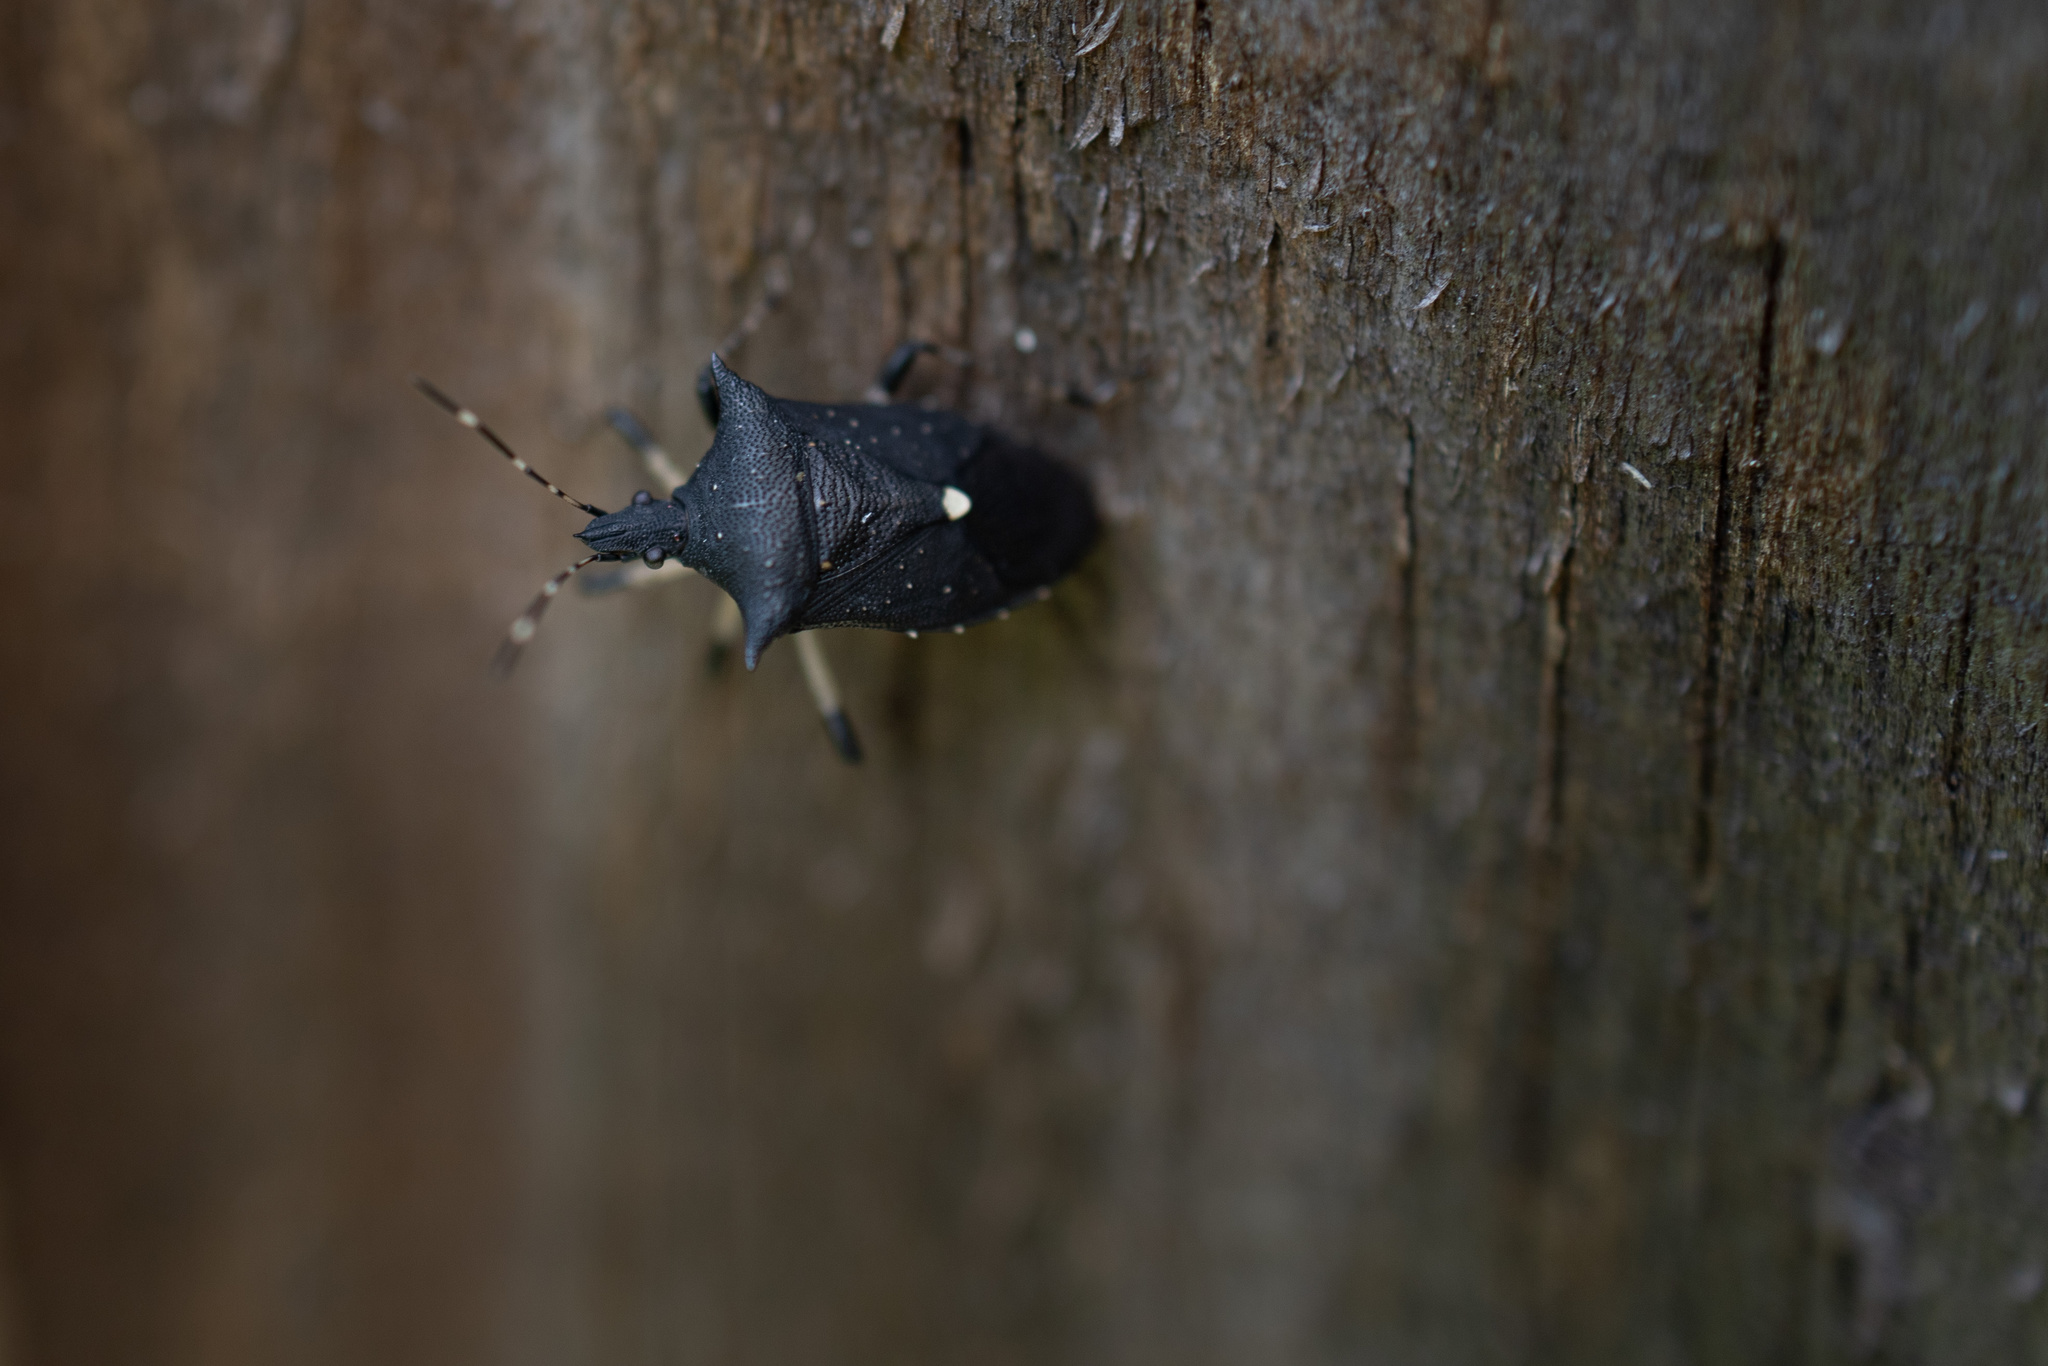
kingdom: Animalia
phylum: Arthropoda
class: Insecta
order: Hemiptera
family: Pentatomidae
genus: Proxys
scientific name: Proxys punctulatus
